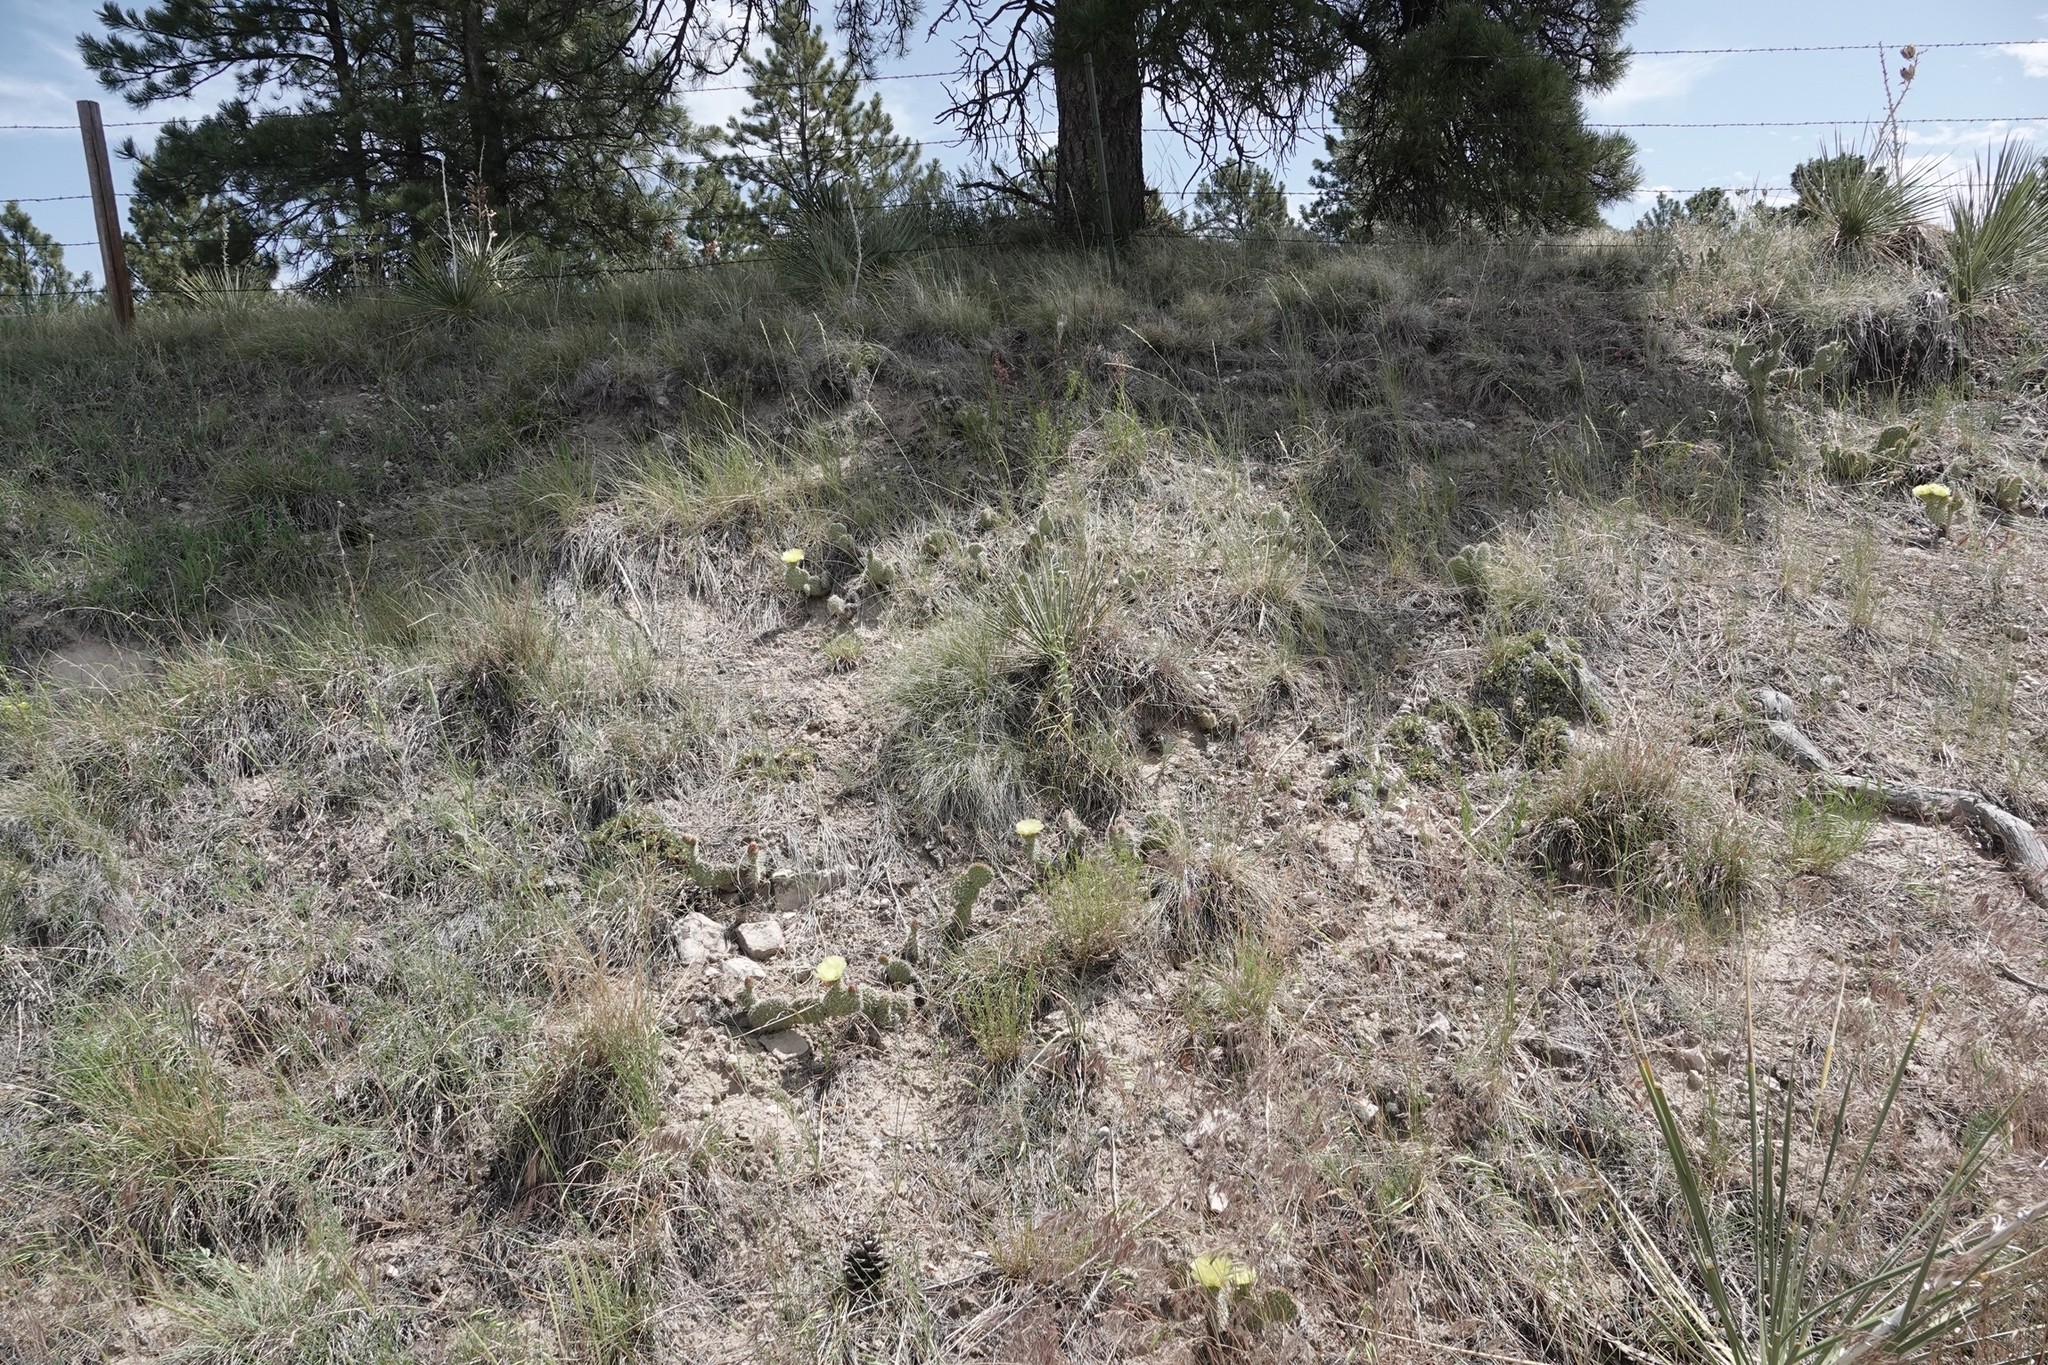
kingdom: Plantae
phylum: Tracheophyta
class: Magnoliopsida
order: Caryophyllales
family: Cactaceae
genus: Opuntia
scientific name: Opuntia polyacantha
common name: Plains prickly-pear
